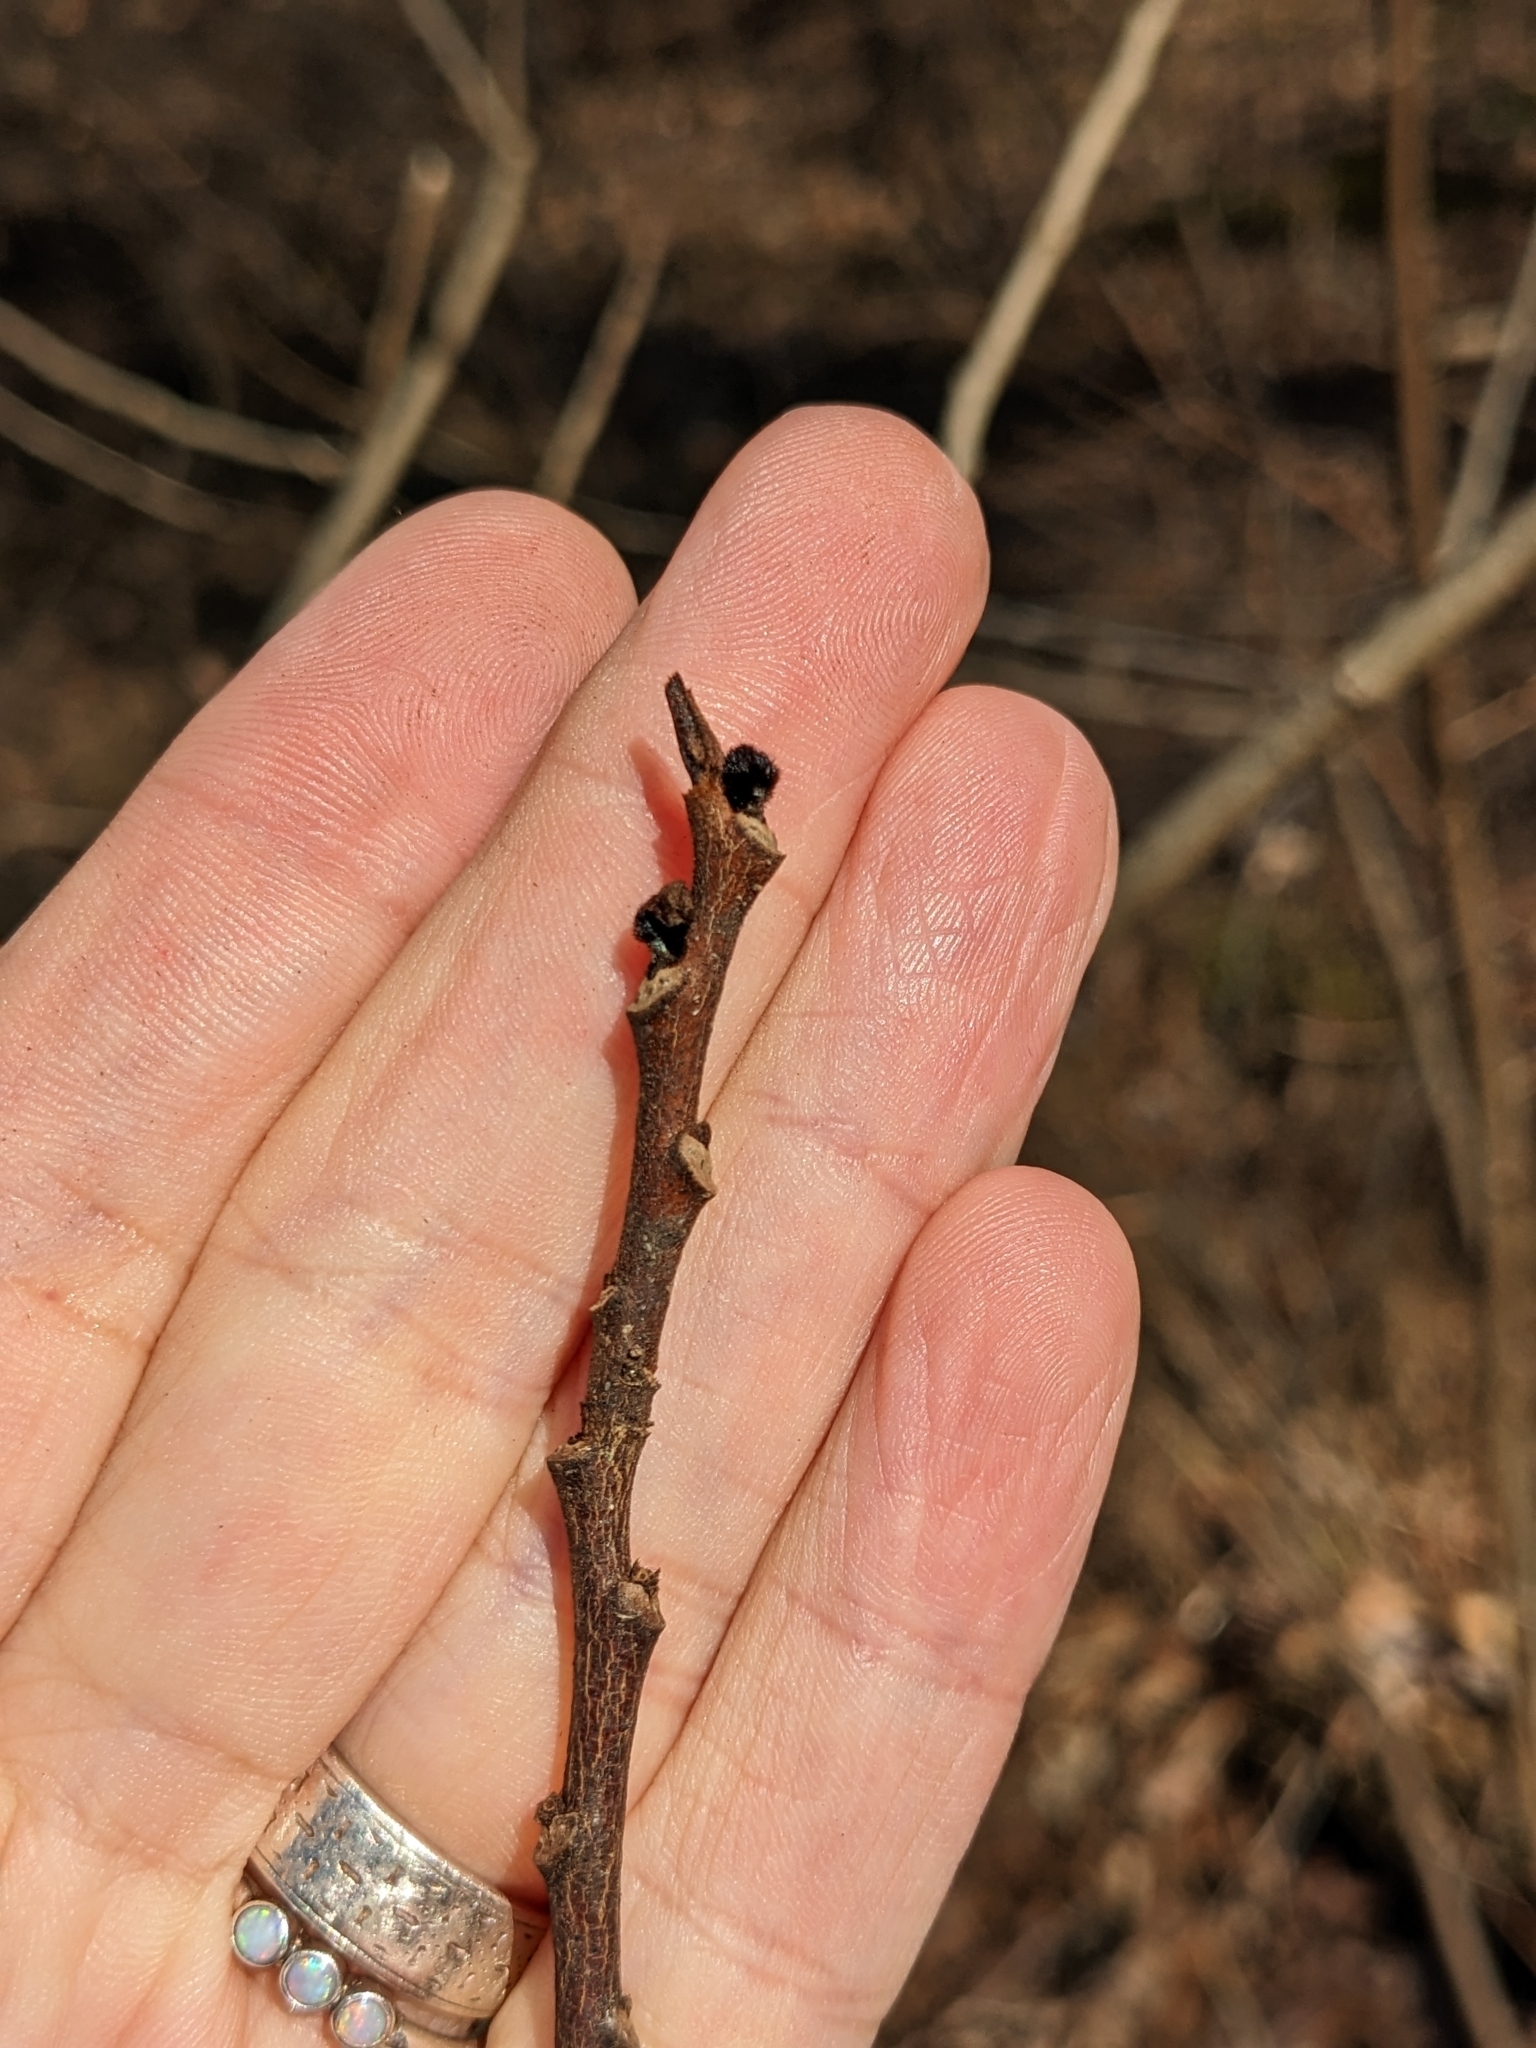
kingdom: Plantae
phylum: Tracheophyta
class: Magnoliopsida
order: Magnoliales
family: Annonaceae
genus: Asimina
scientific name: Asimina triloba
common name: Dog-banana
